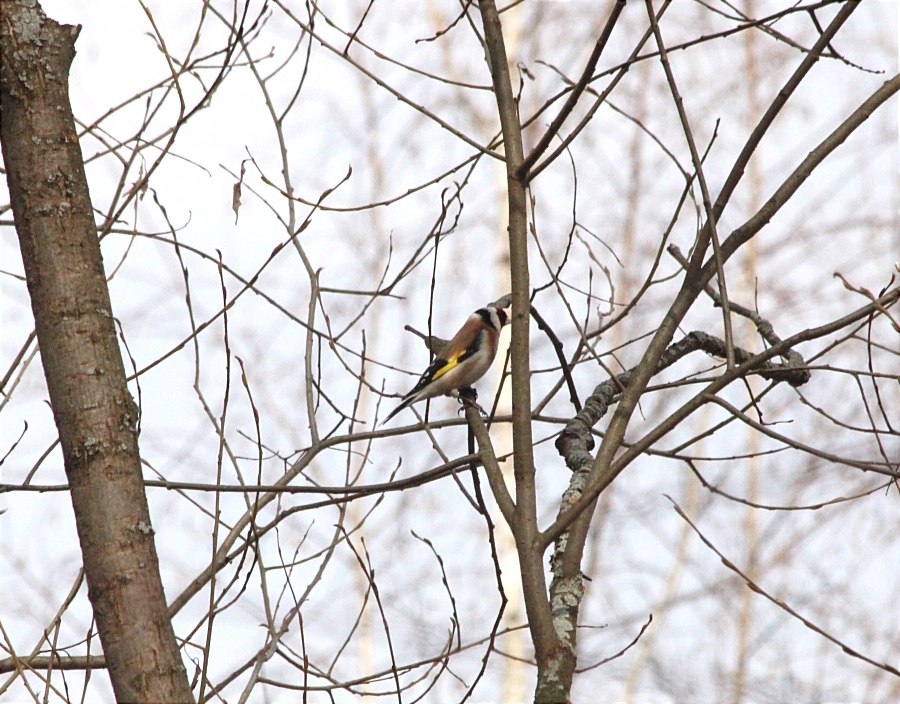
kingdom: Animalia
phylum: Chordata
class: Aves
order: Passeriformes
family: Fringillidae
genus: Carduelis
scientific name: Carduelis carduelis
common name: European goldfinch
